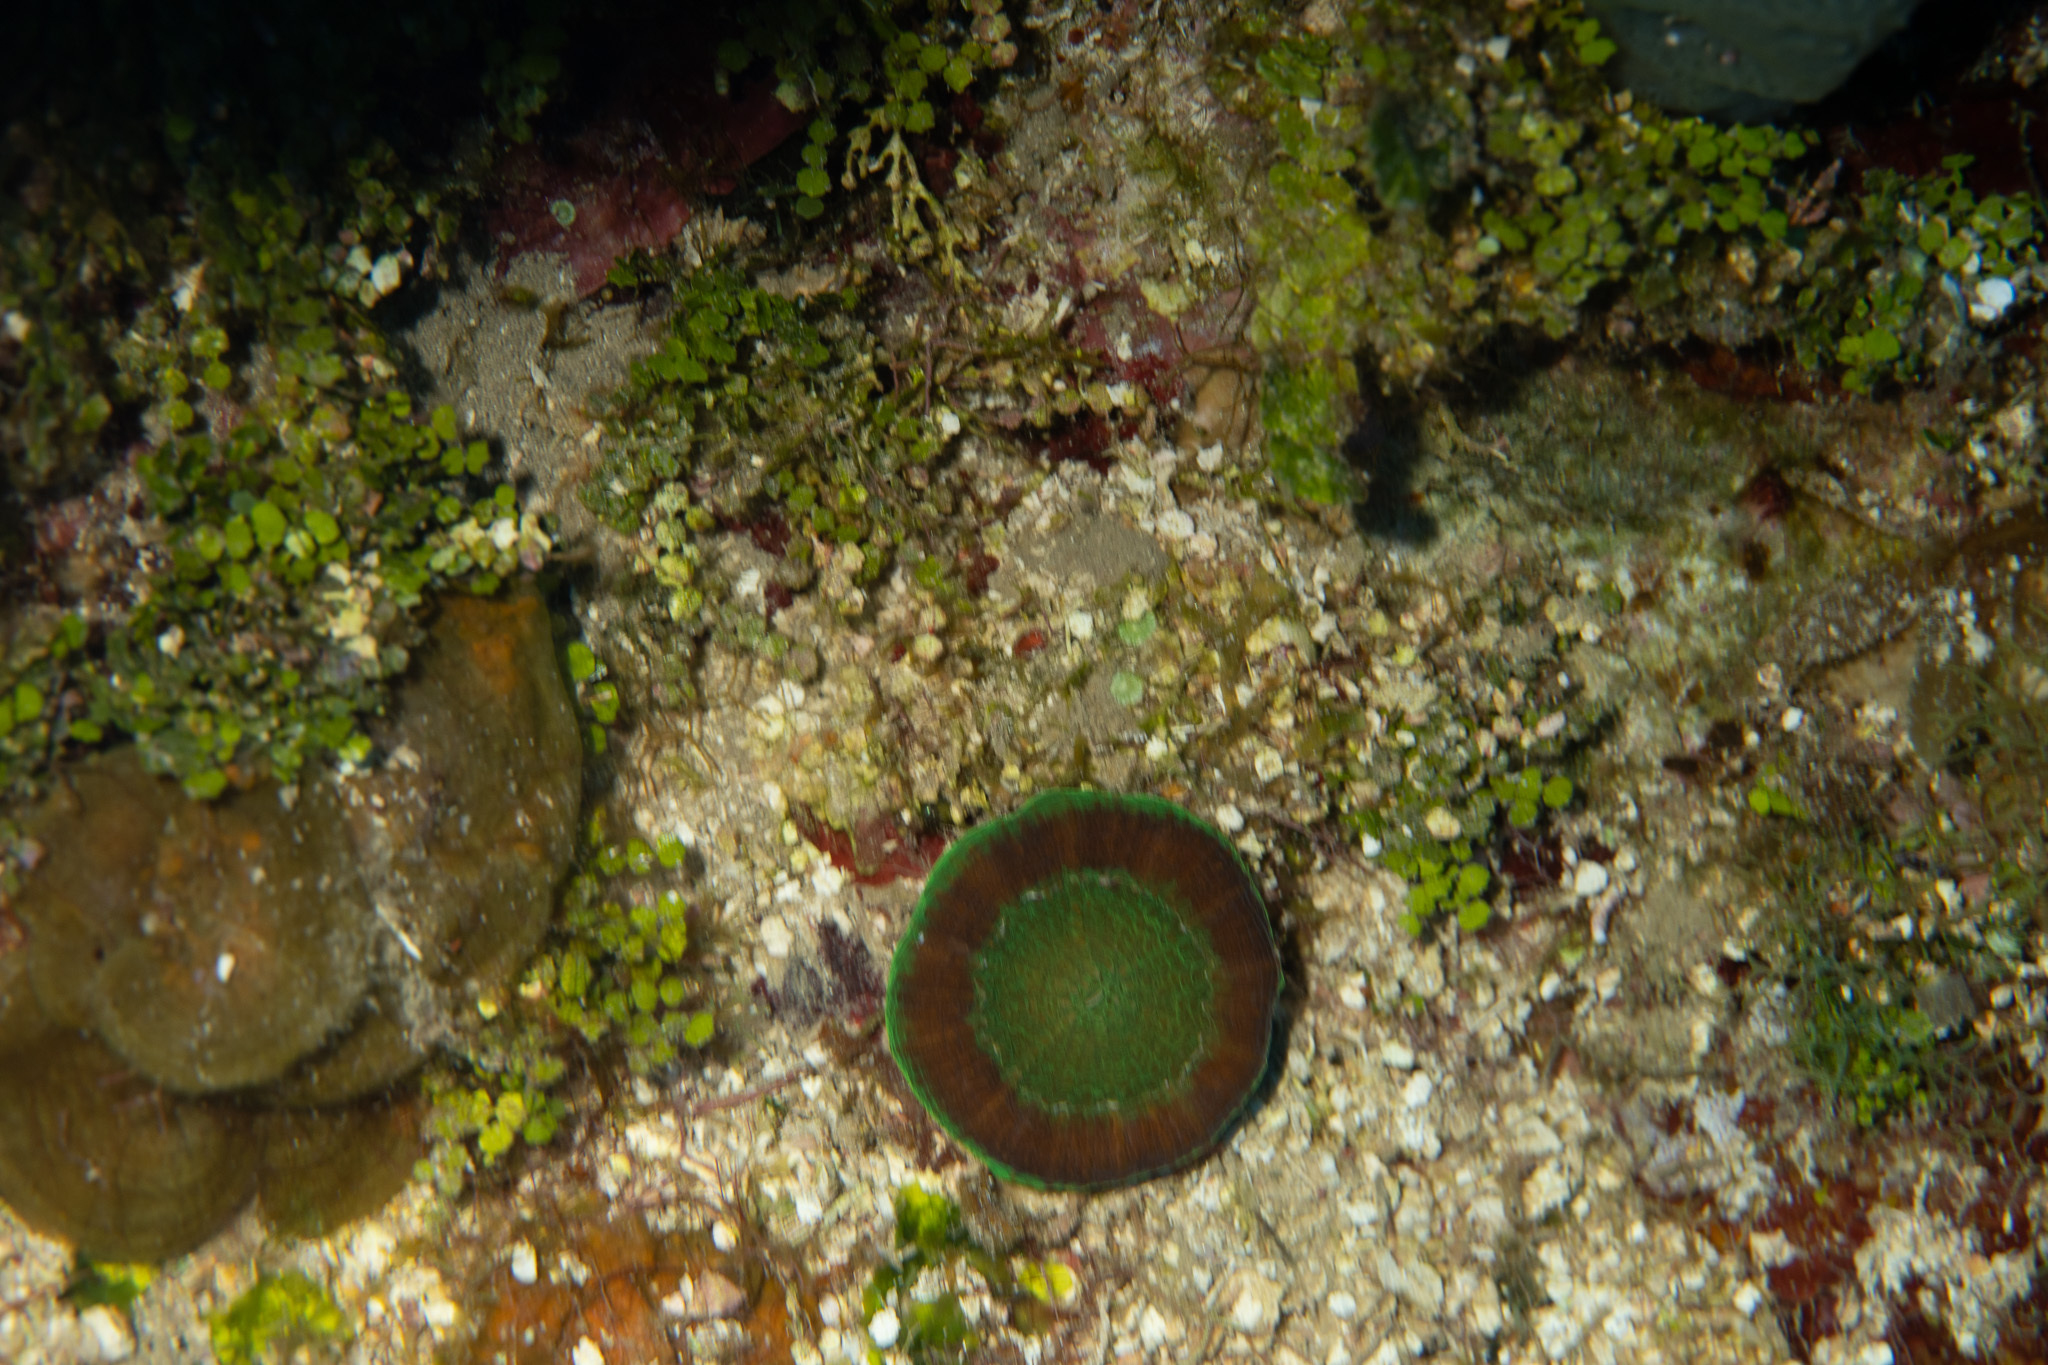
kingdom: Animalia
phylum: Cnidaria
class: Anthozoa
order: Scleractinia
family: Faviidae
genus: Scolymia
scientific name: Scolymia cubensis
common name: Artichoke coral
